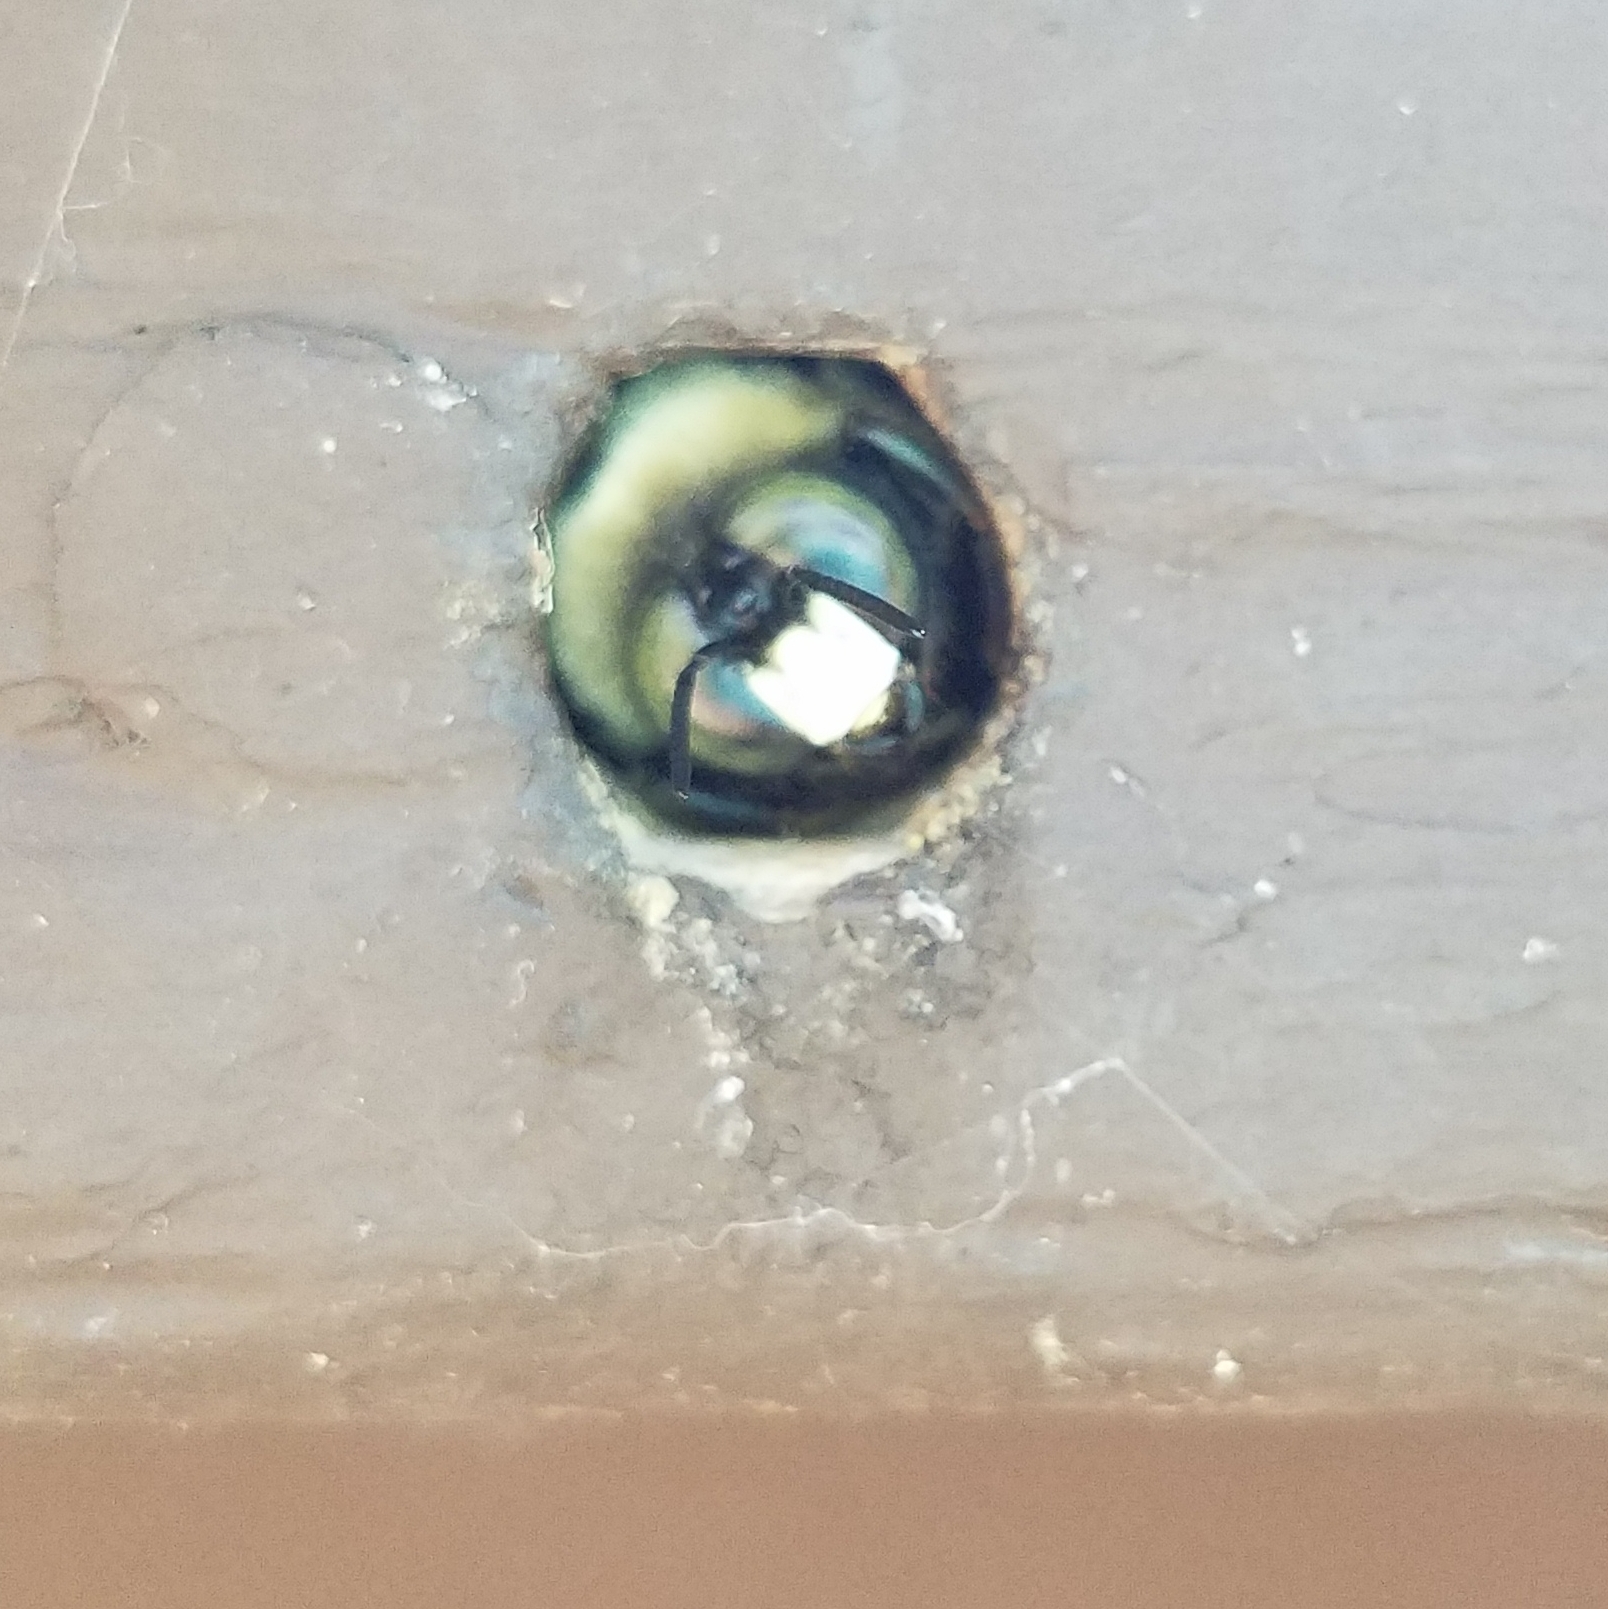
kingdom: Animalia
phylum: Arthropoda
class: Insecta
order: Hymenoptera
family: Apidae
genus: Xylocopa
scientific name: Xylocopa virginica
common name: Carpenter bee
